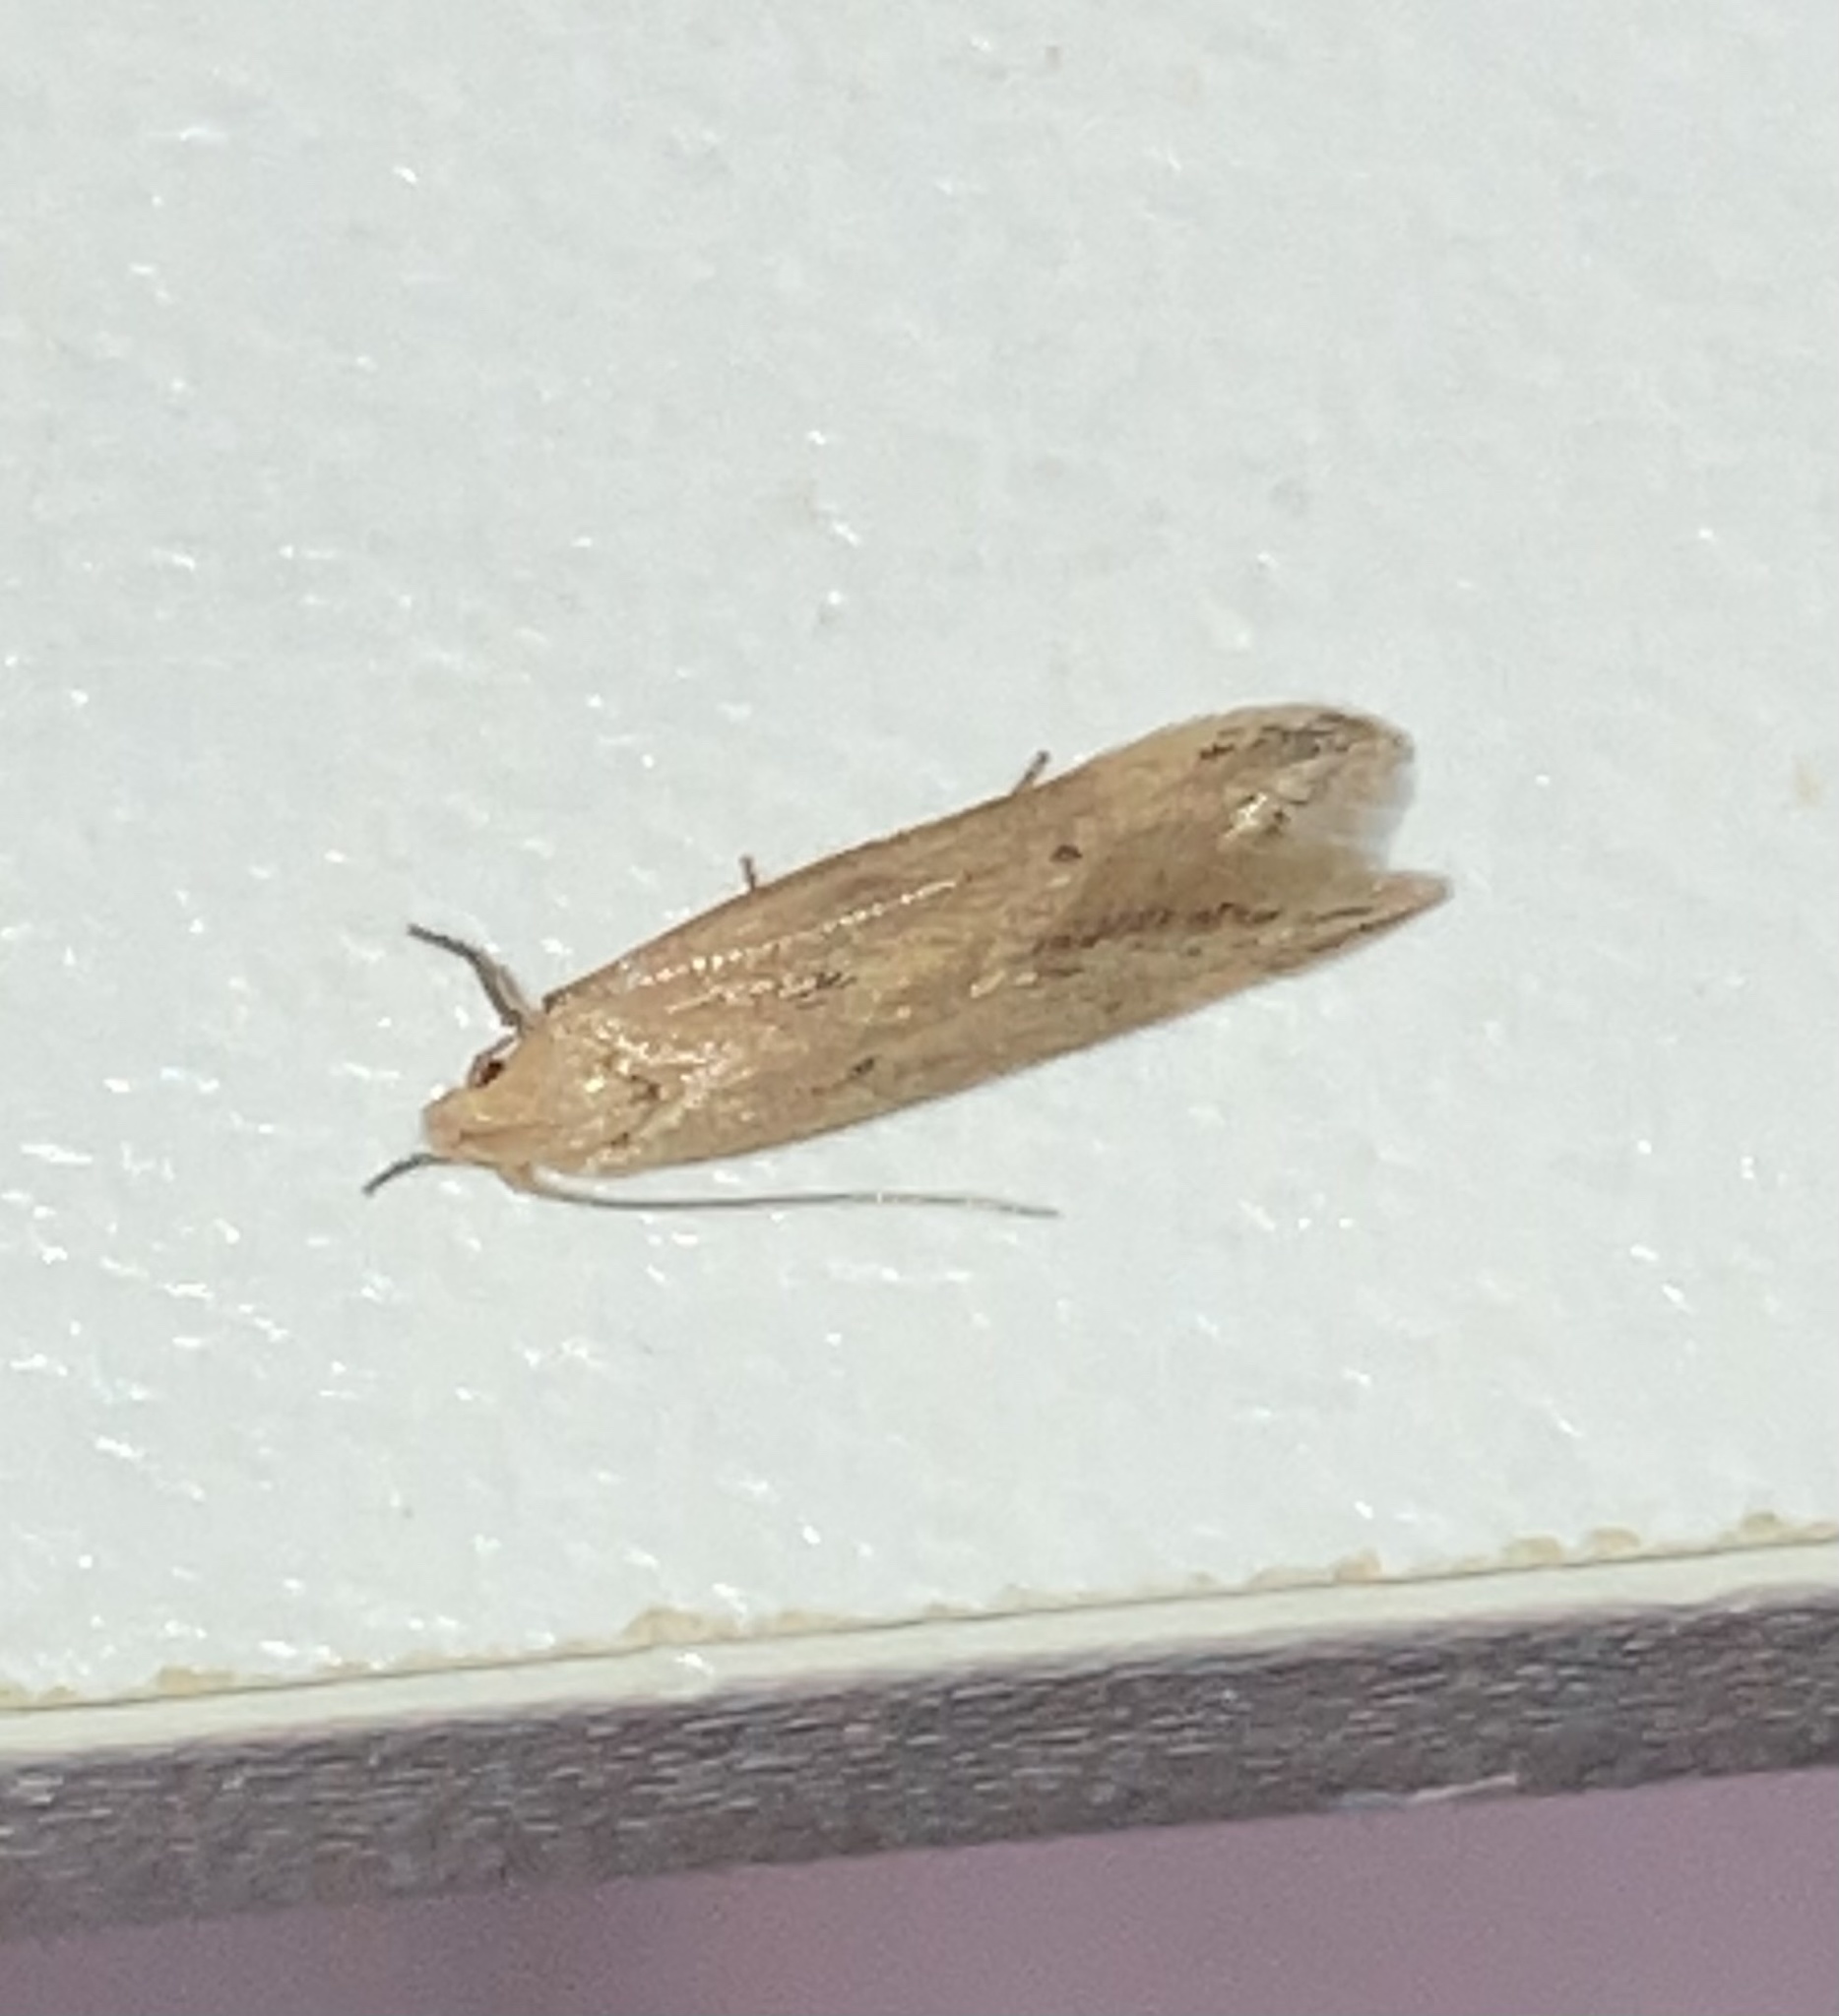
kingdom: Animalia
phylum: Arthropoda
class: Insecta
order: Lepidoptera
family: Gelechiidae
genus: Sitotroga
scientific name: Sitotroga cerealella
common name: Angoumois grain moth
